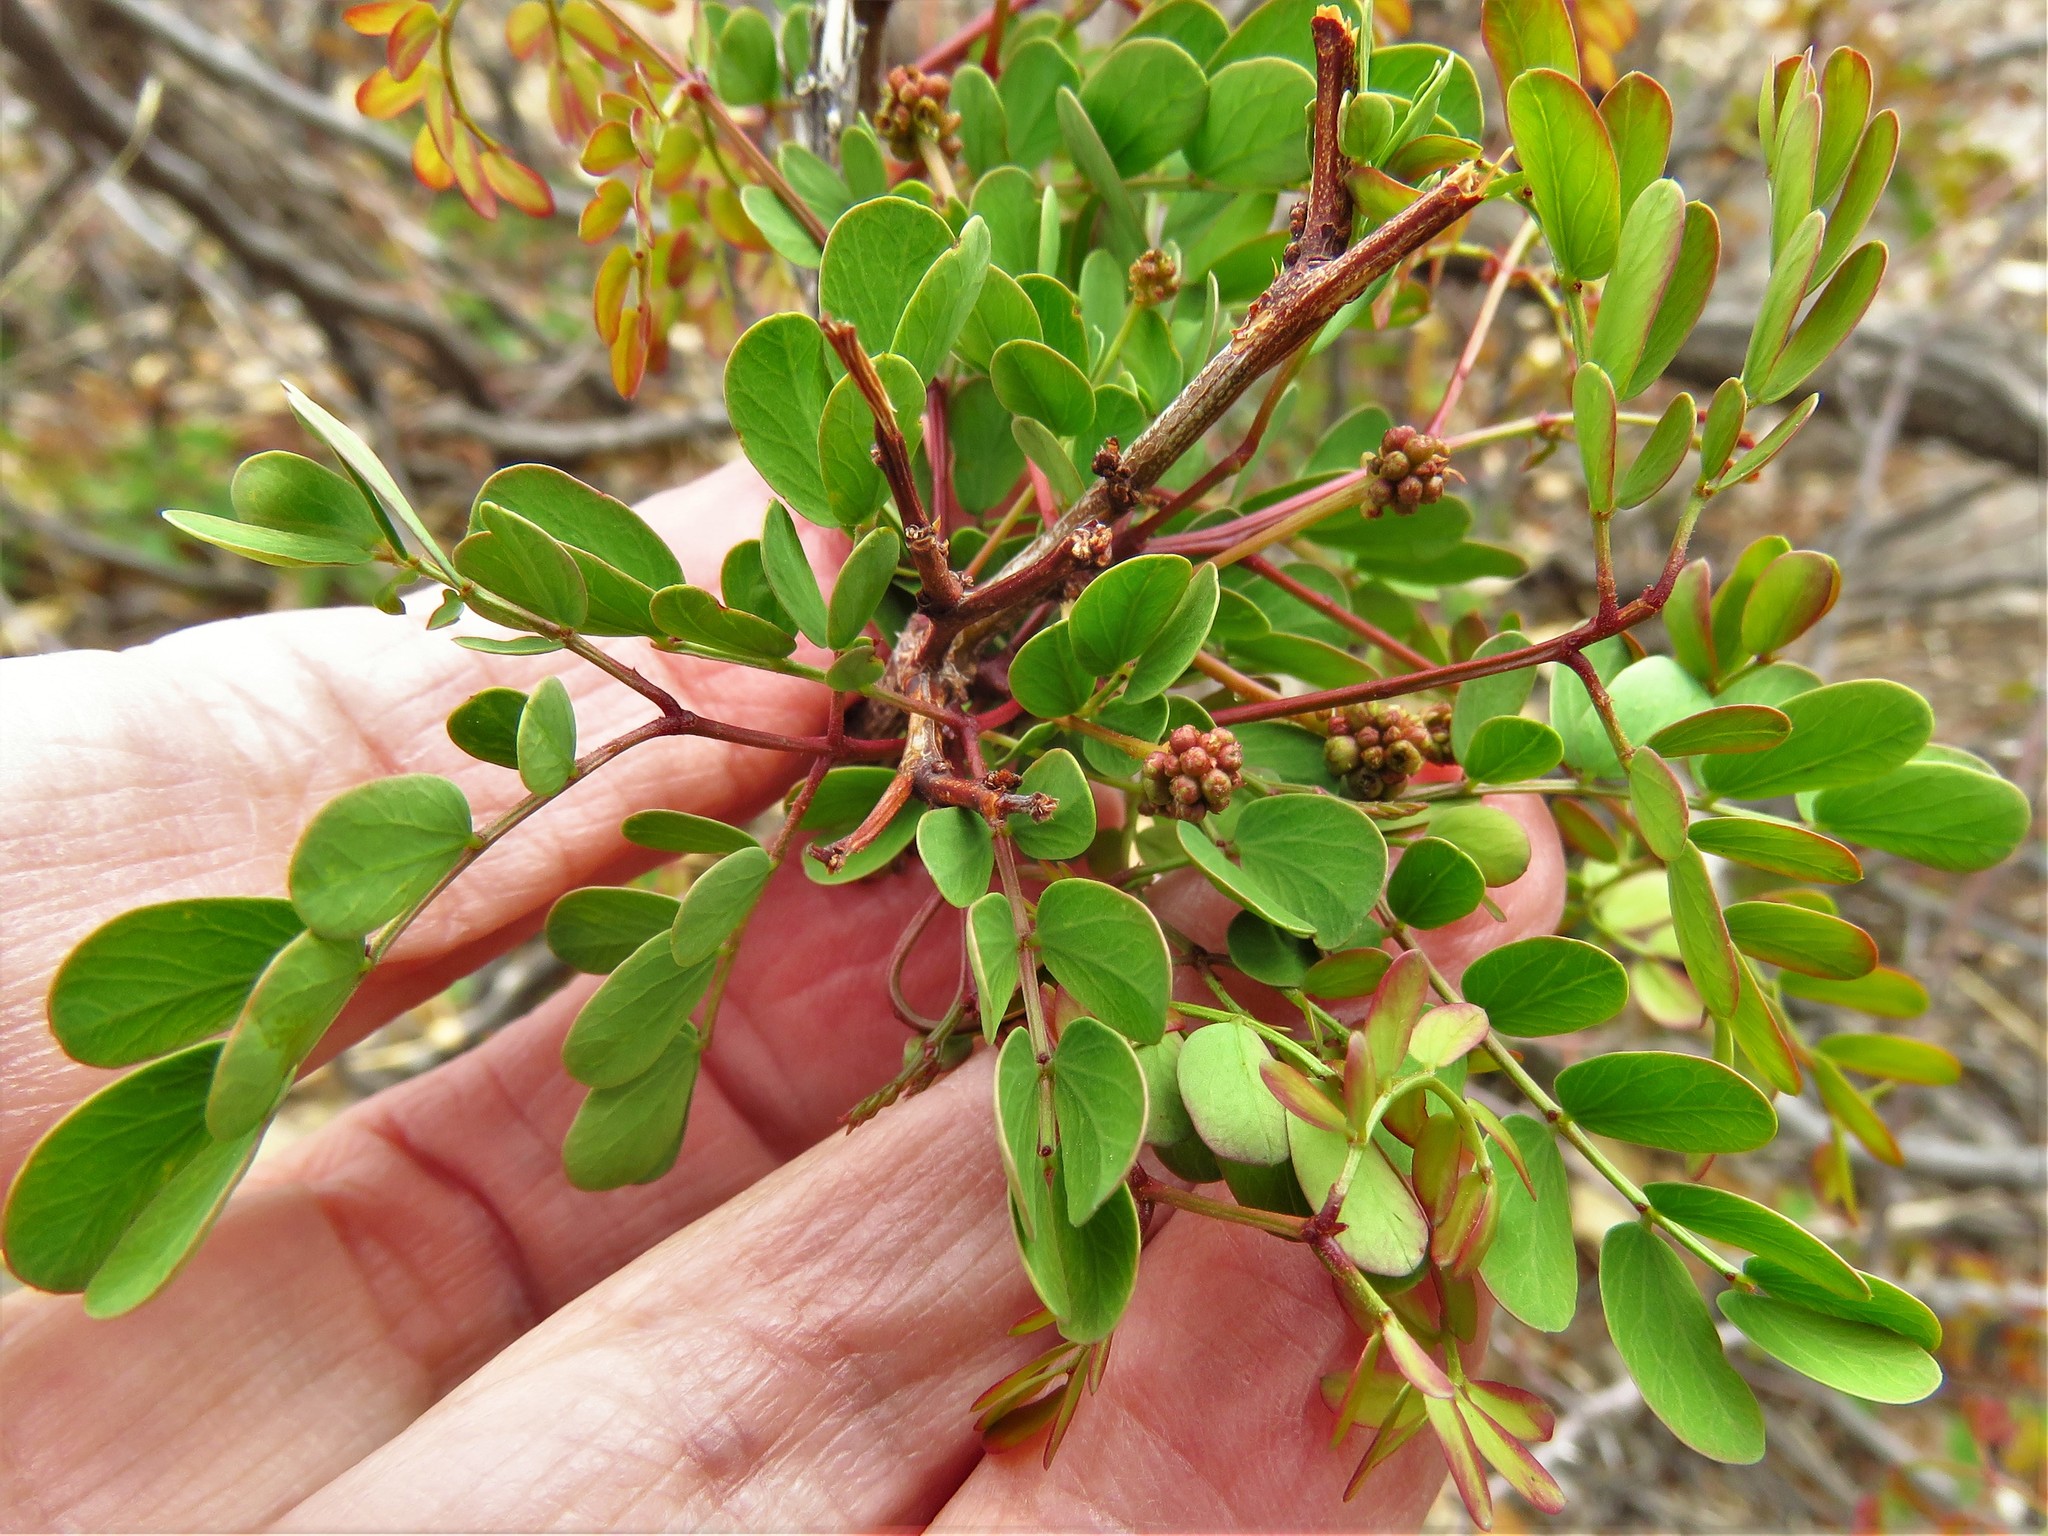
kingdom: Plantae
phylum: Tracheophyta
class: Magnoliopsida
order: Fabales
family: Fabaceae
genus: Senegalia
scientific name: Senegalia roemeriana
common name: Roemer's acacia
